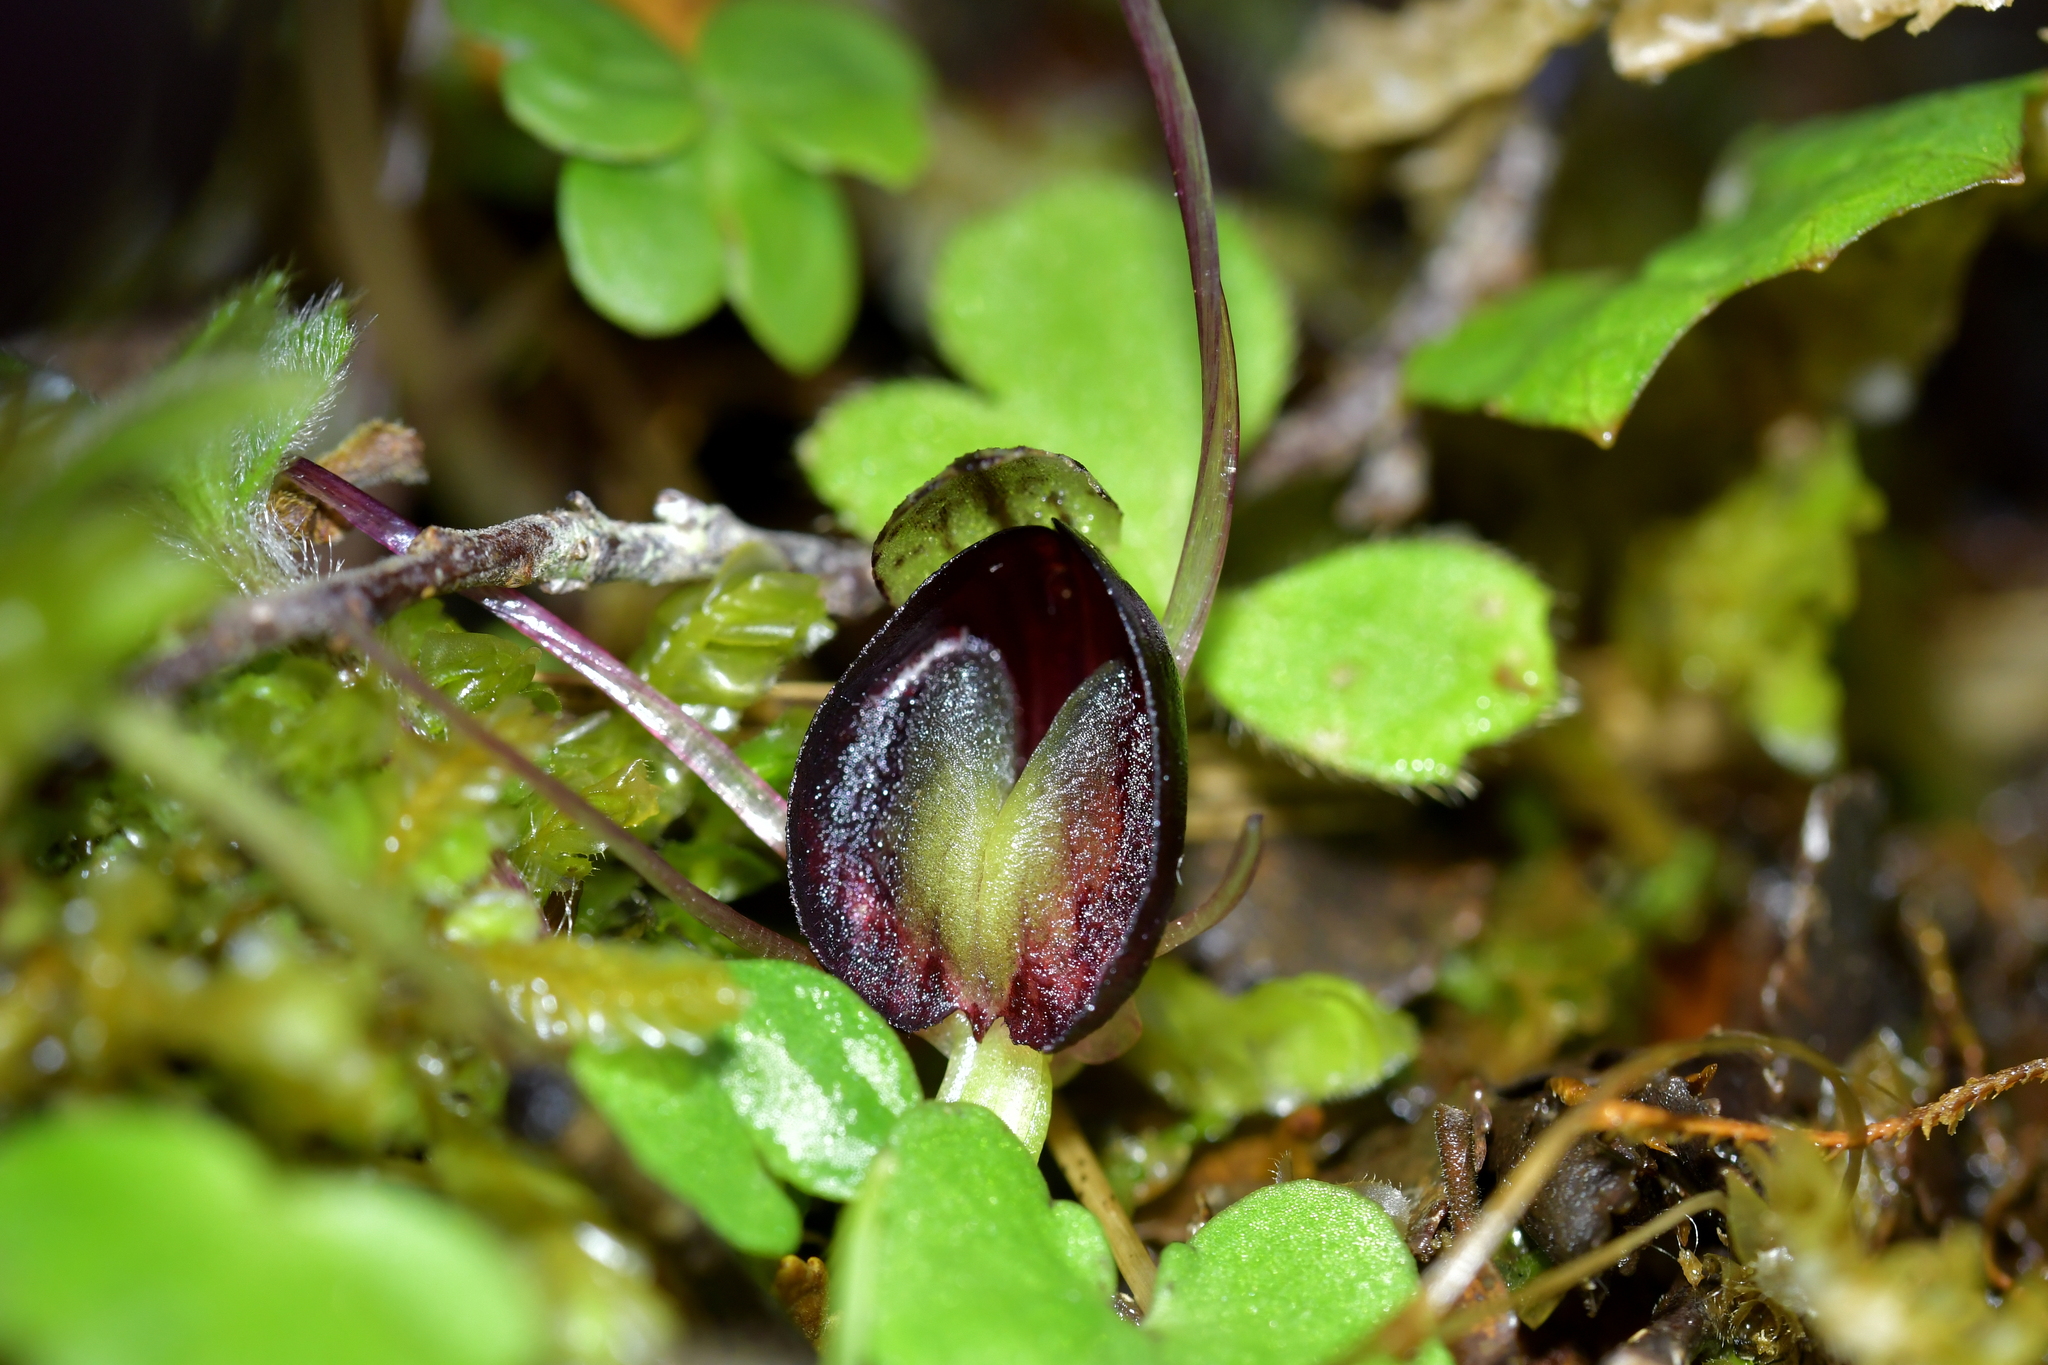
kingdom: Plantae
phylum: Tracheophyta
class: Liliopsida
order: Asparagales
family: Orchidaceae
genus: Corybas
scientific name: Corybas confusus
